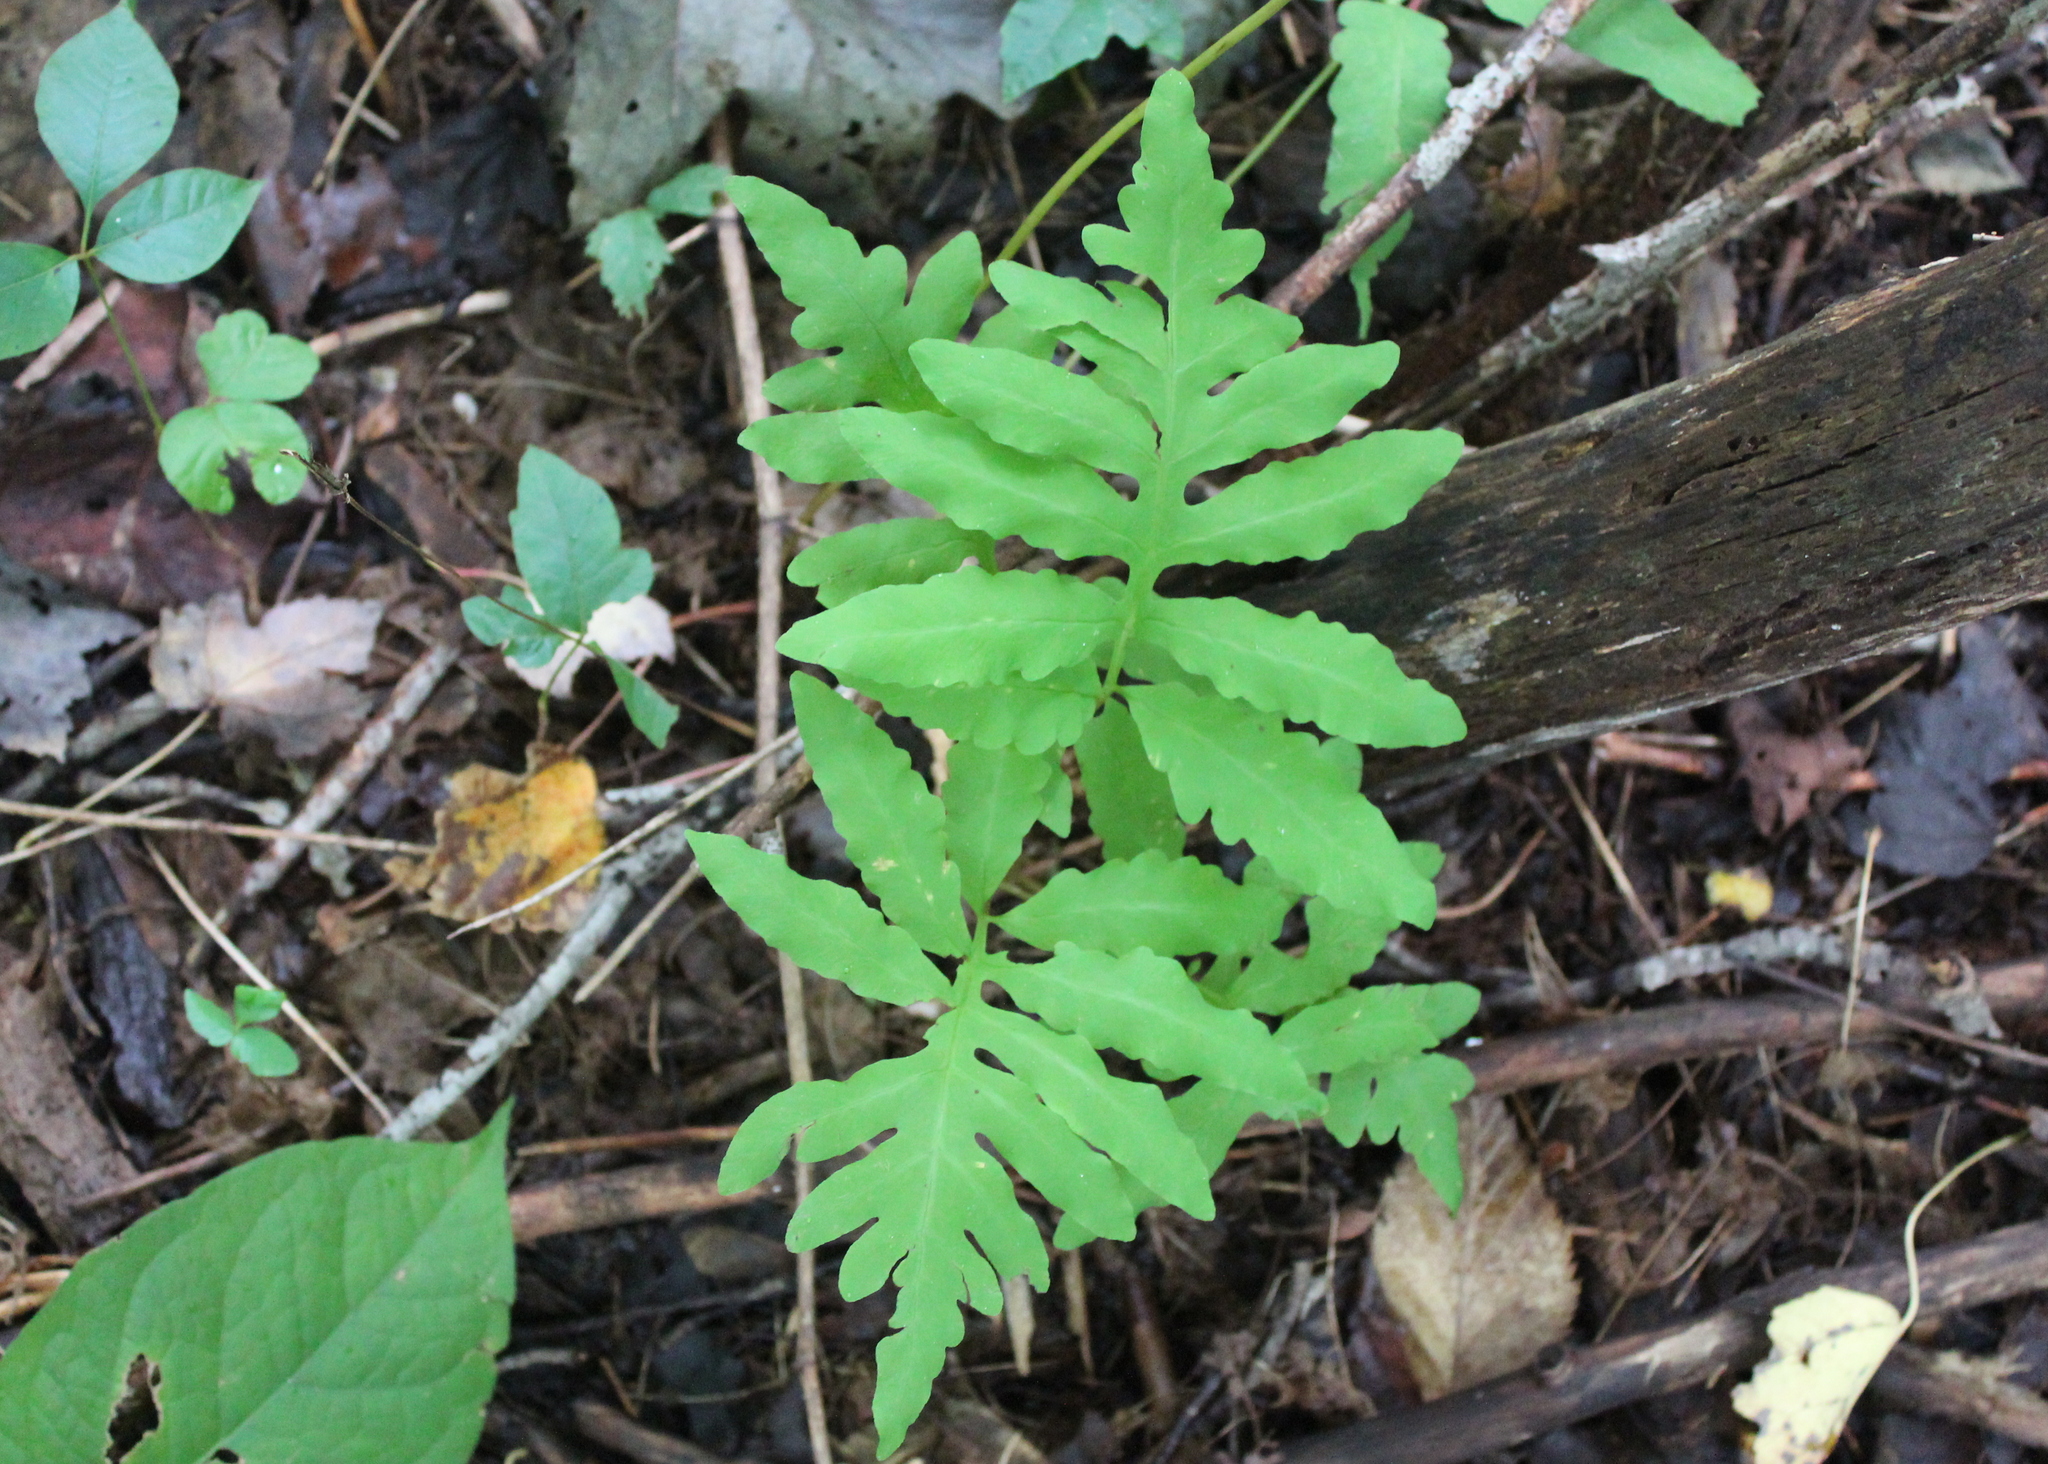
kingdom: Plantae
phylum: Tracheophyta
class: Polypodiopsida
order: Polypodiales
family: Onocleaceae
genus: Onoclea
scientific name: Onoclea sensibilis
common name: Sensitive fern
